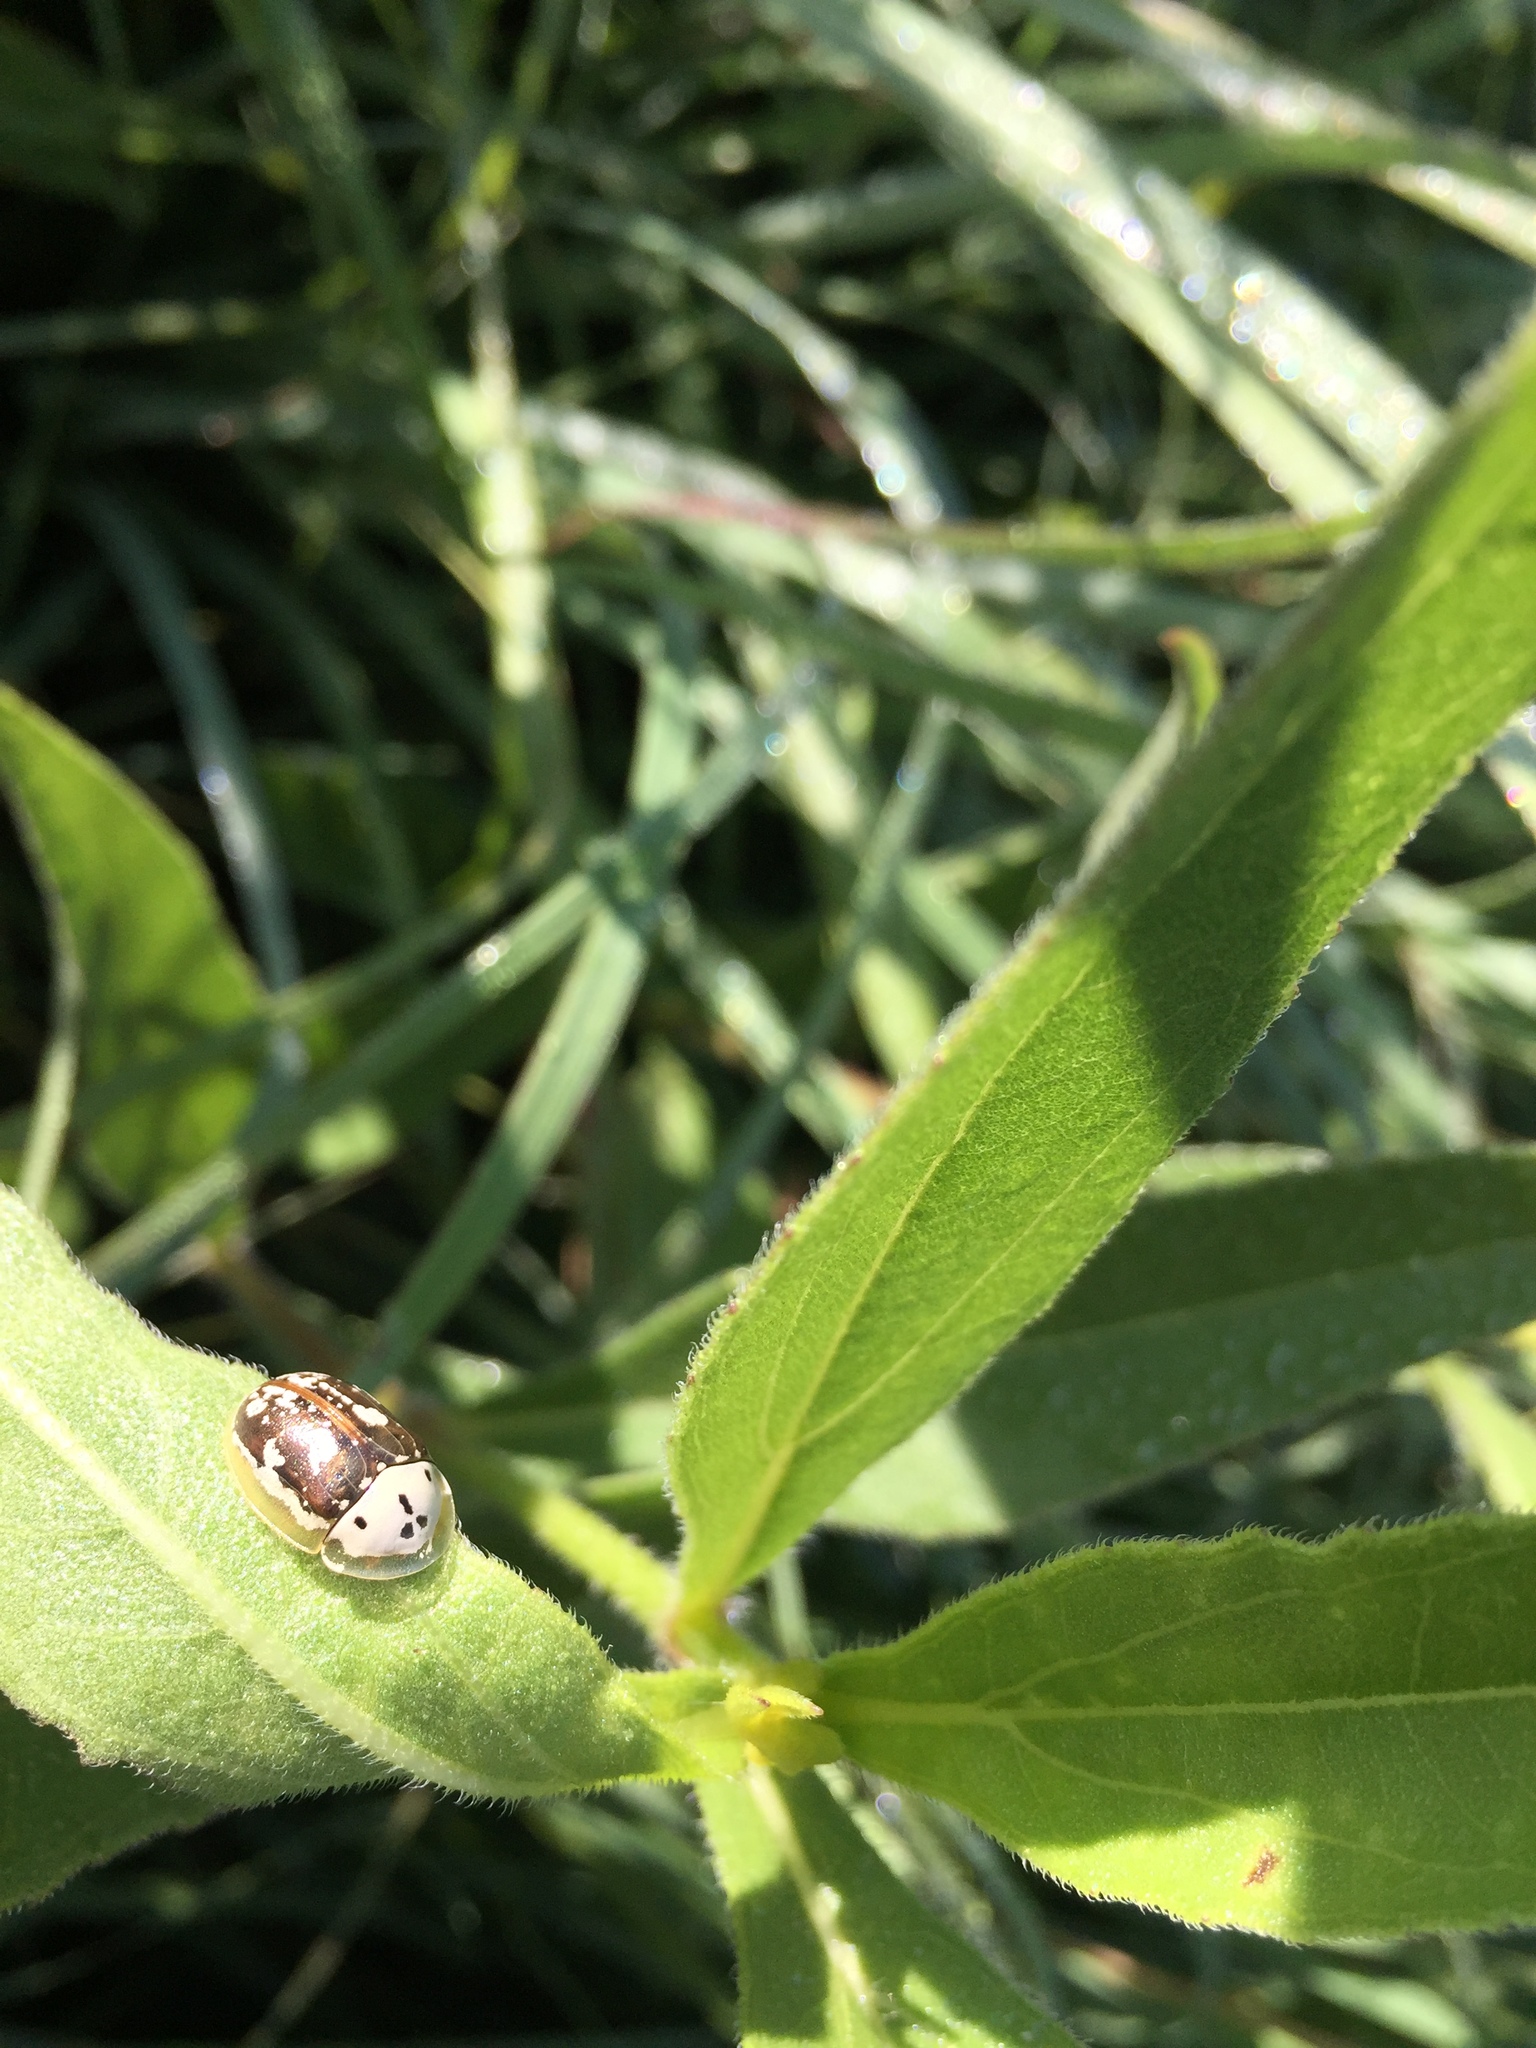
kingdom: Animalia
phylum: Arthropoda
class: Insecta
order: Coleoptera
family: Chrysomelidae
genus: Physonota
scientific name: Physonota helianthi
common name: Sunflower tortoise beetle
